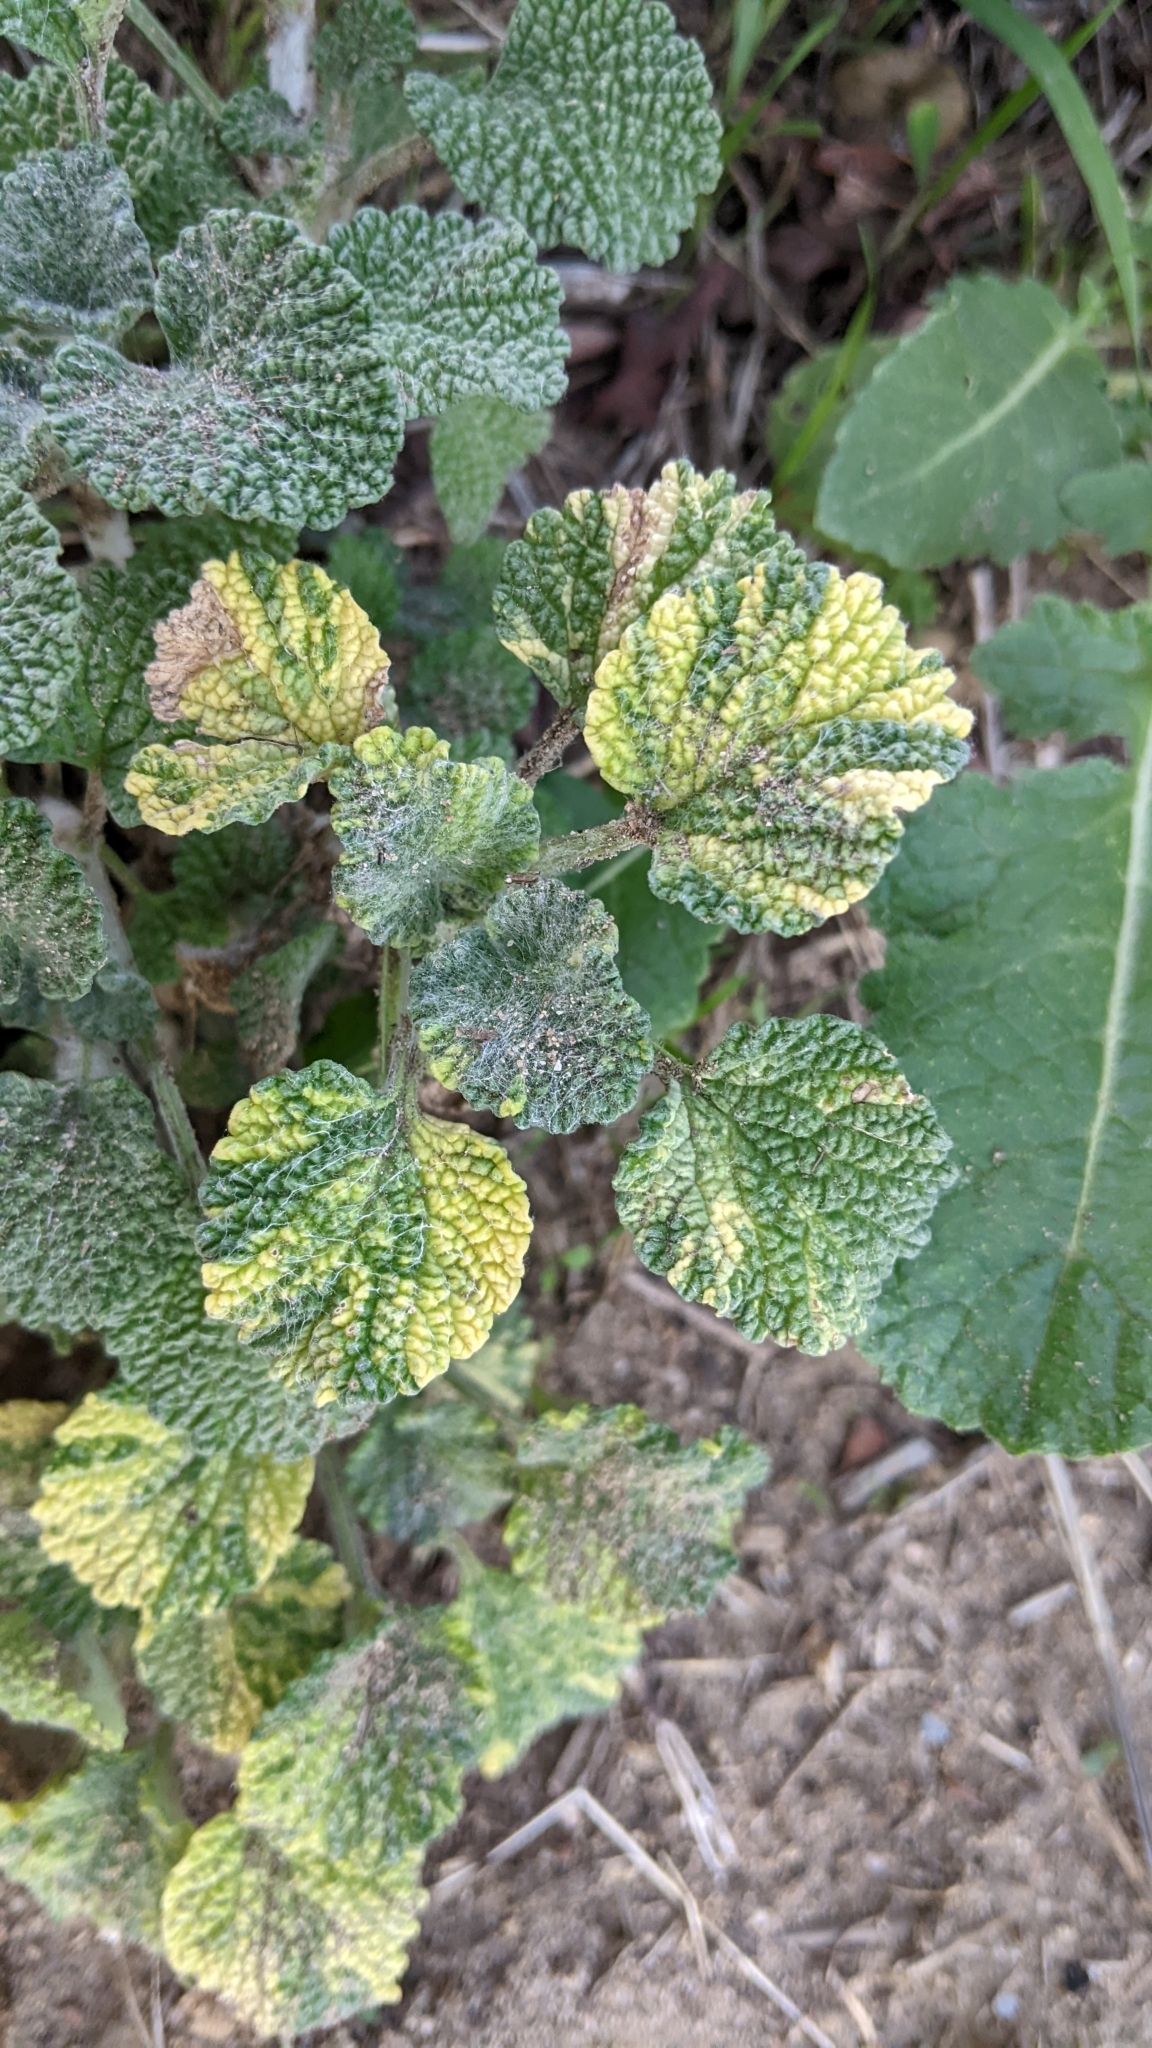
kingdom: Plantae
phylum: Tracheophyta
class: Magnoliopsida
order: Lamiales
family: Lamiaceae
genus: Marrubium
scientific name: Marrubium vulgare
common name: Horehound
